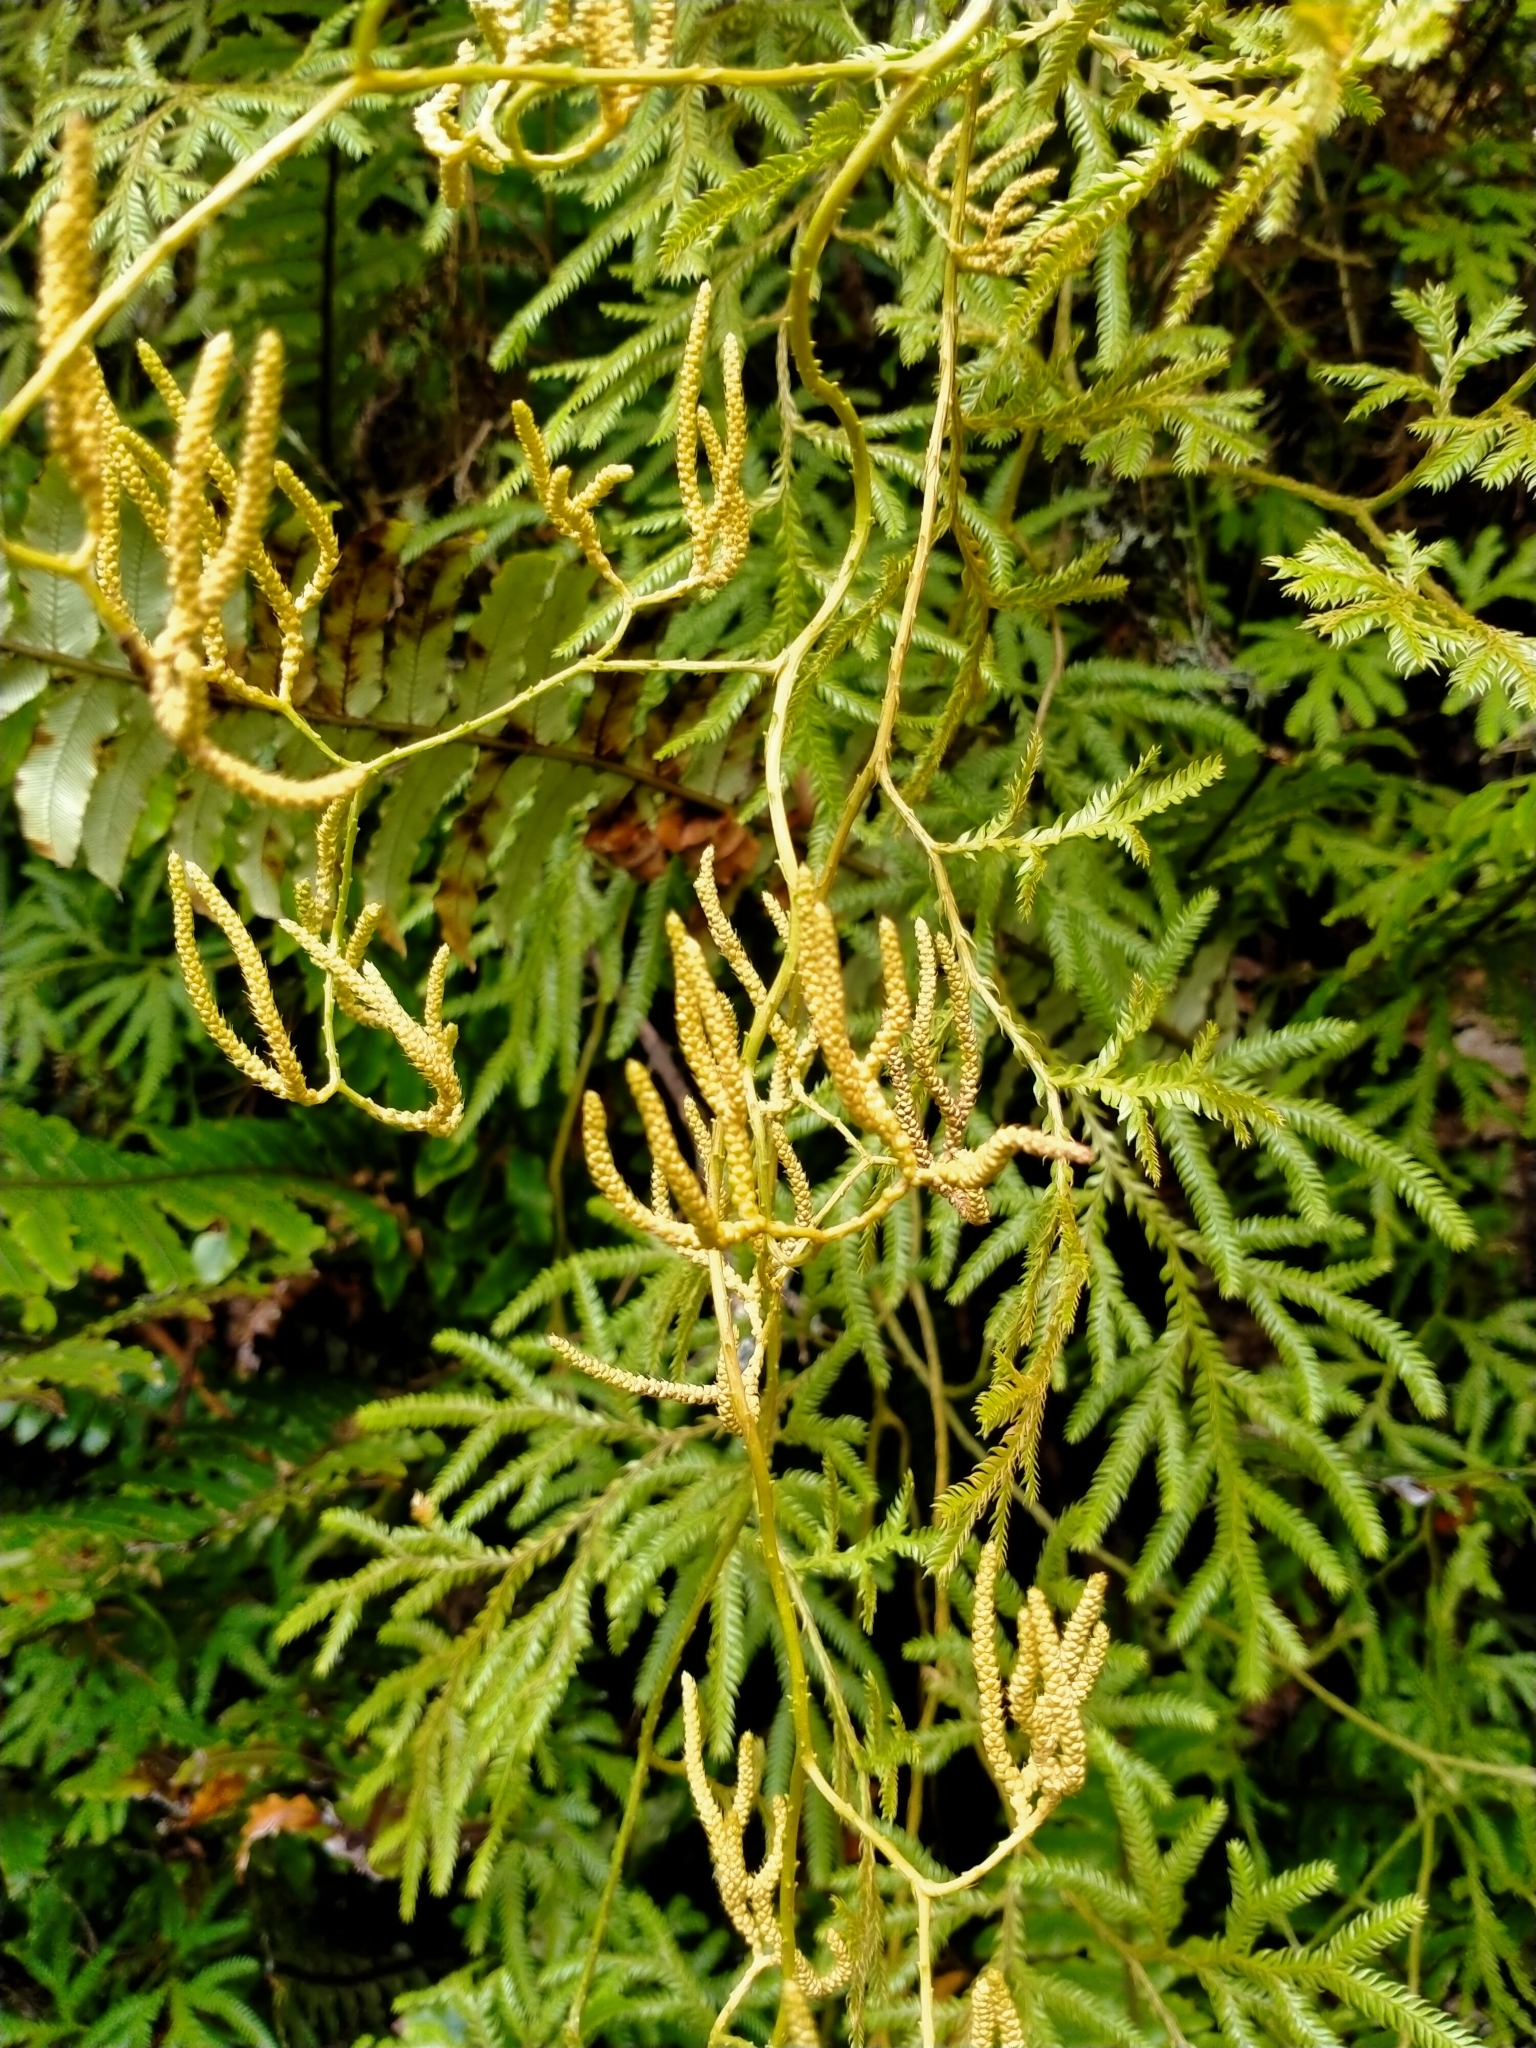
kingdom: Plantae
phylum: Tracheophyta
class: Lycopodiopsida
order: Lycopodiales
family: Lycopodiaceae
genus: Lycopodium
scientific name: Lycopodium volubile
